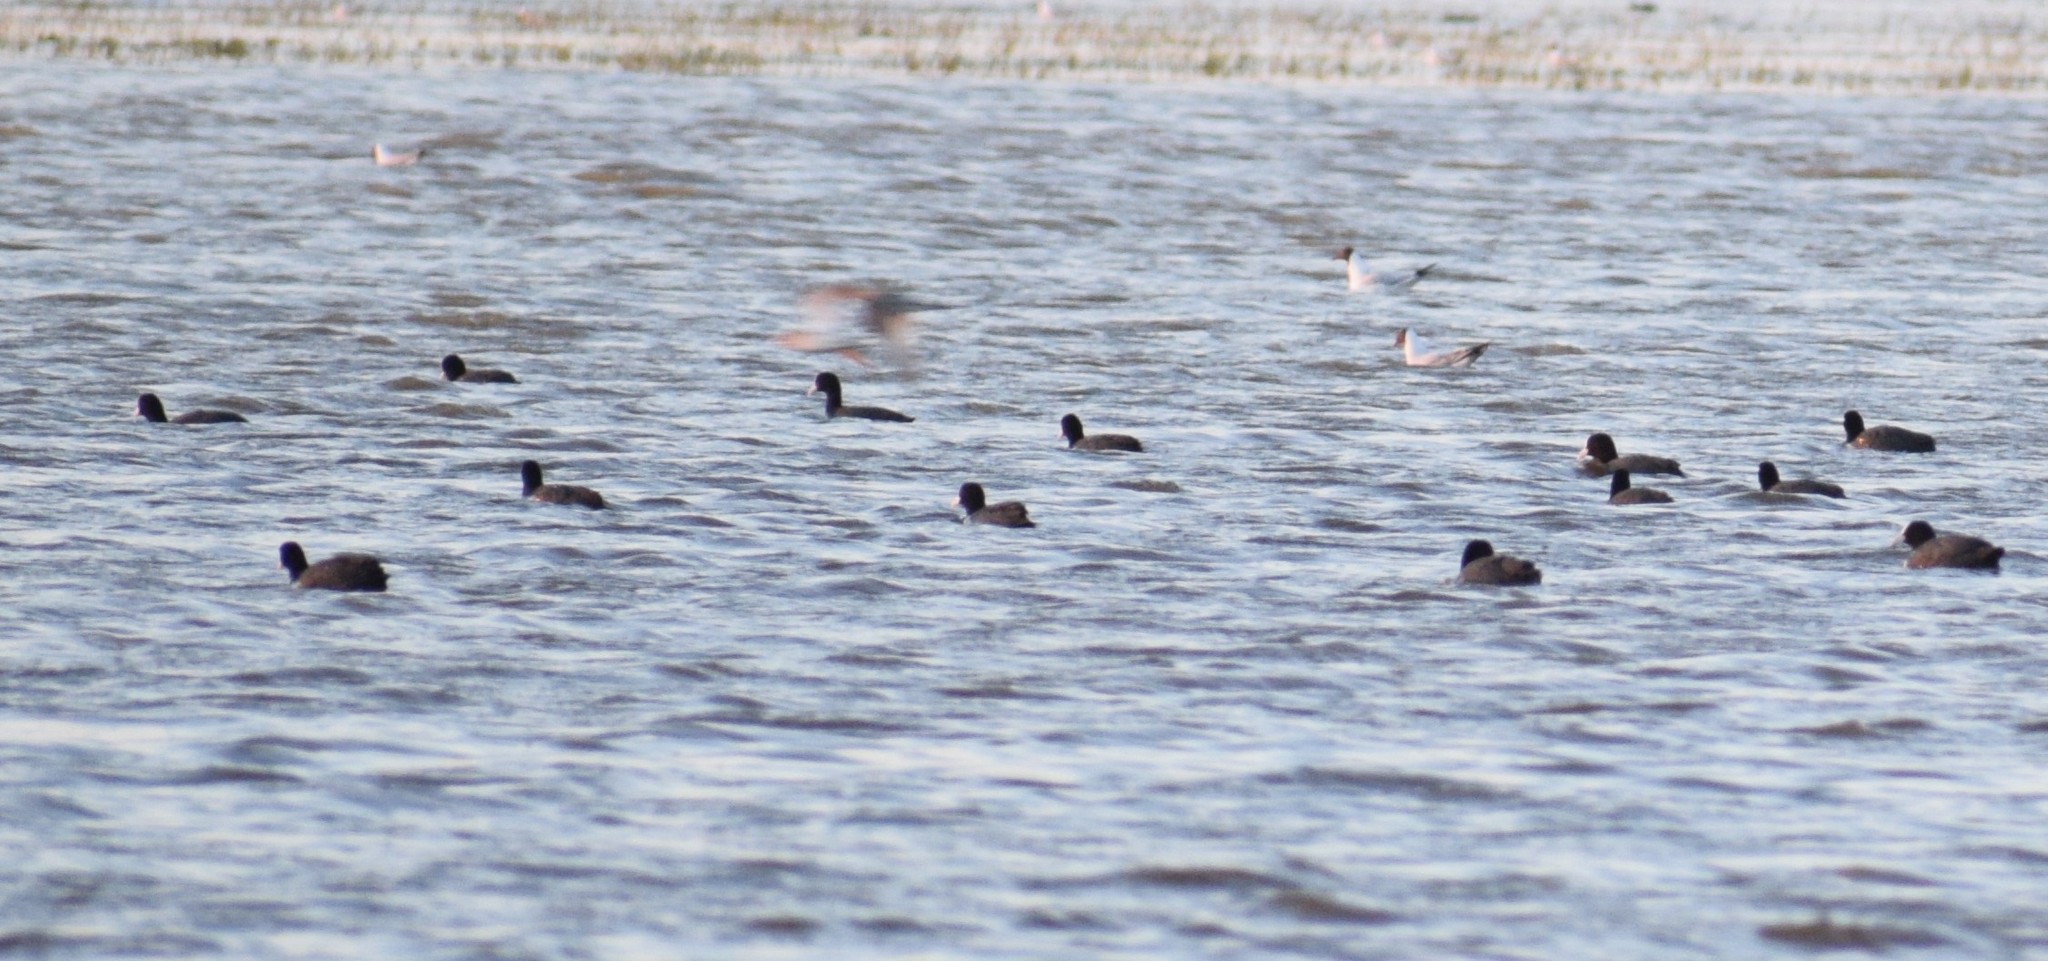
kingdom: Animalia
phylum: Chordata
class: Aves
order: Charadriiformes
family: Laridae
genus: Chroicocephalus
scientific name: Chroicocephalus ridibundus
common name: Black-headed gull
